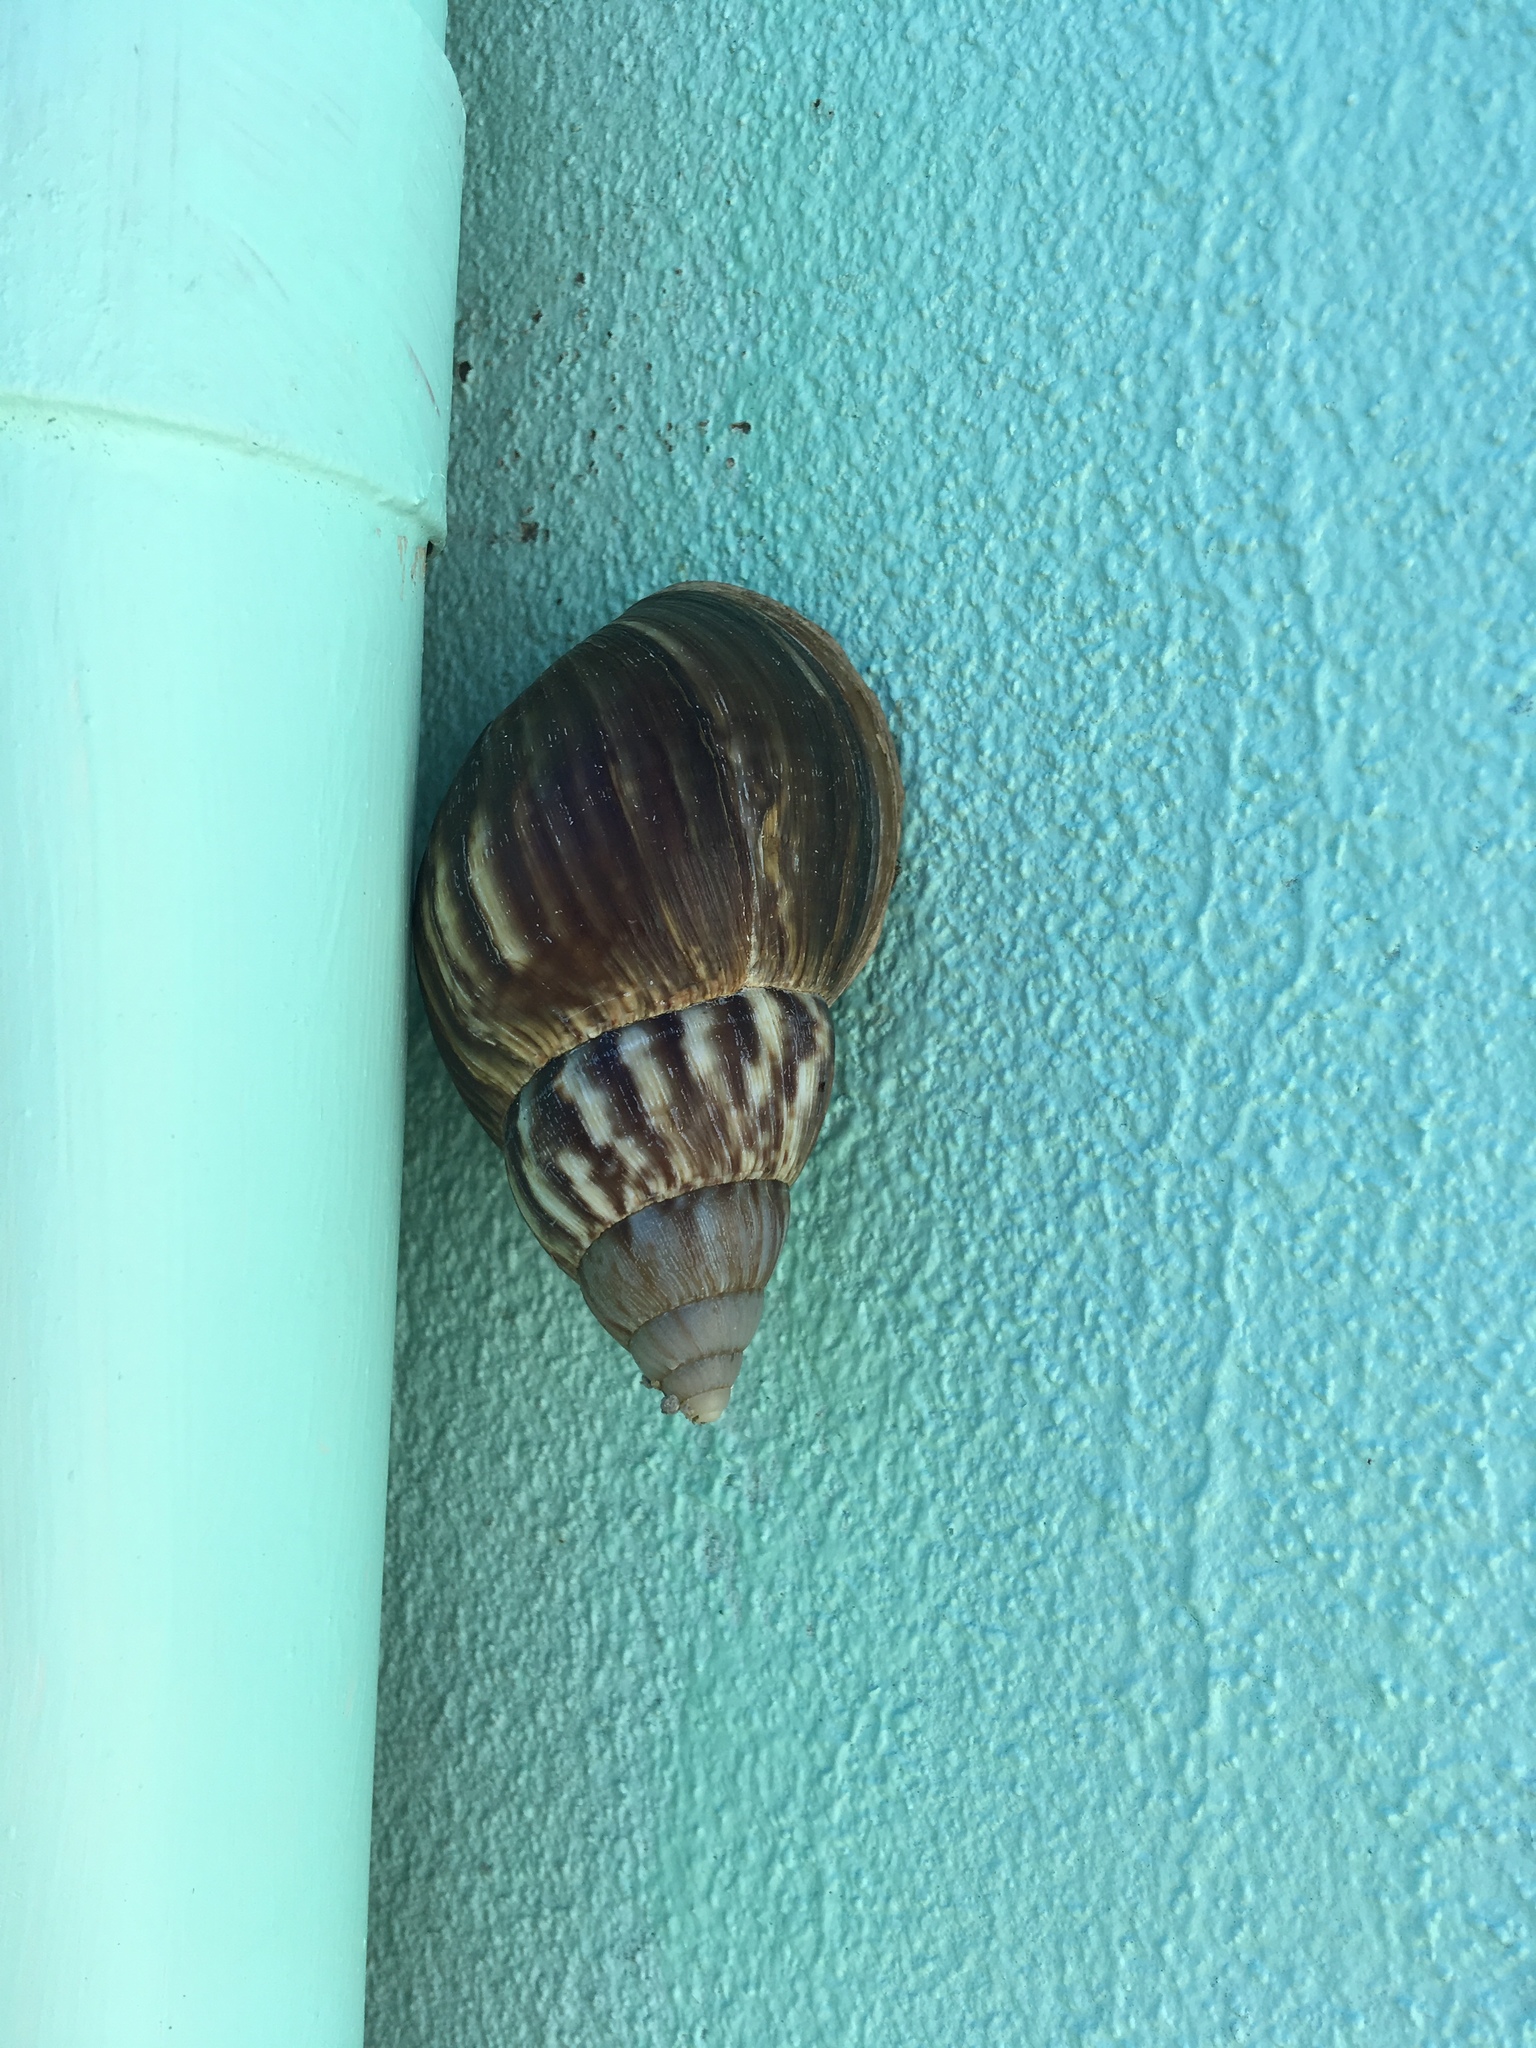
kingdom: Animalia
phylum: Mollusca
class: Gastropoda
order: Stylommatophora
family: Achatinidae
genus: Lissachatina
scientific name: Lissachatina fulica
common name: Giant african snail
